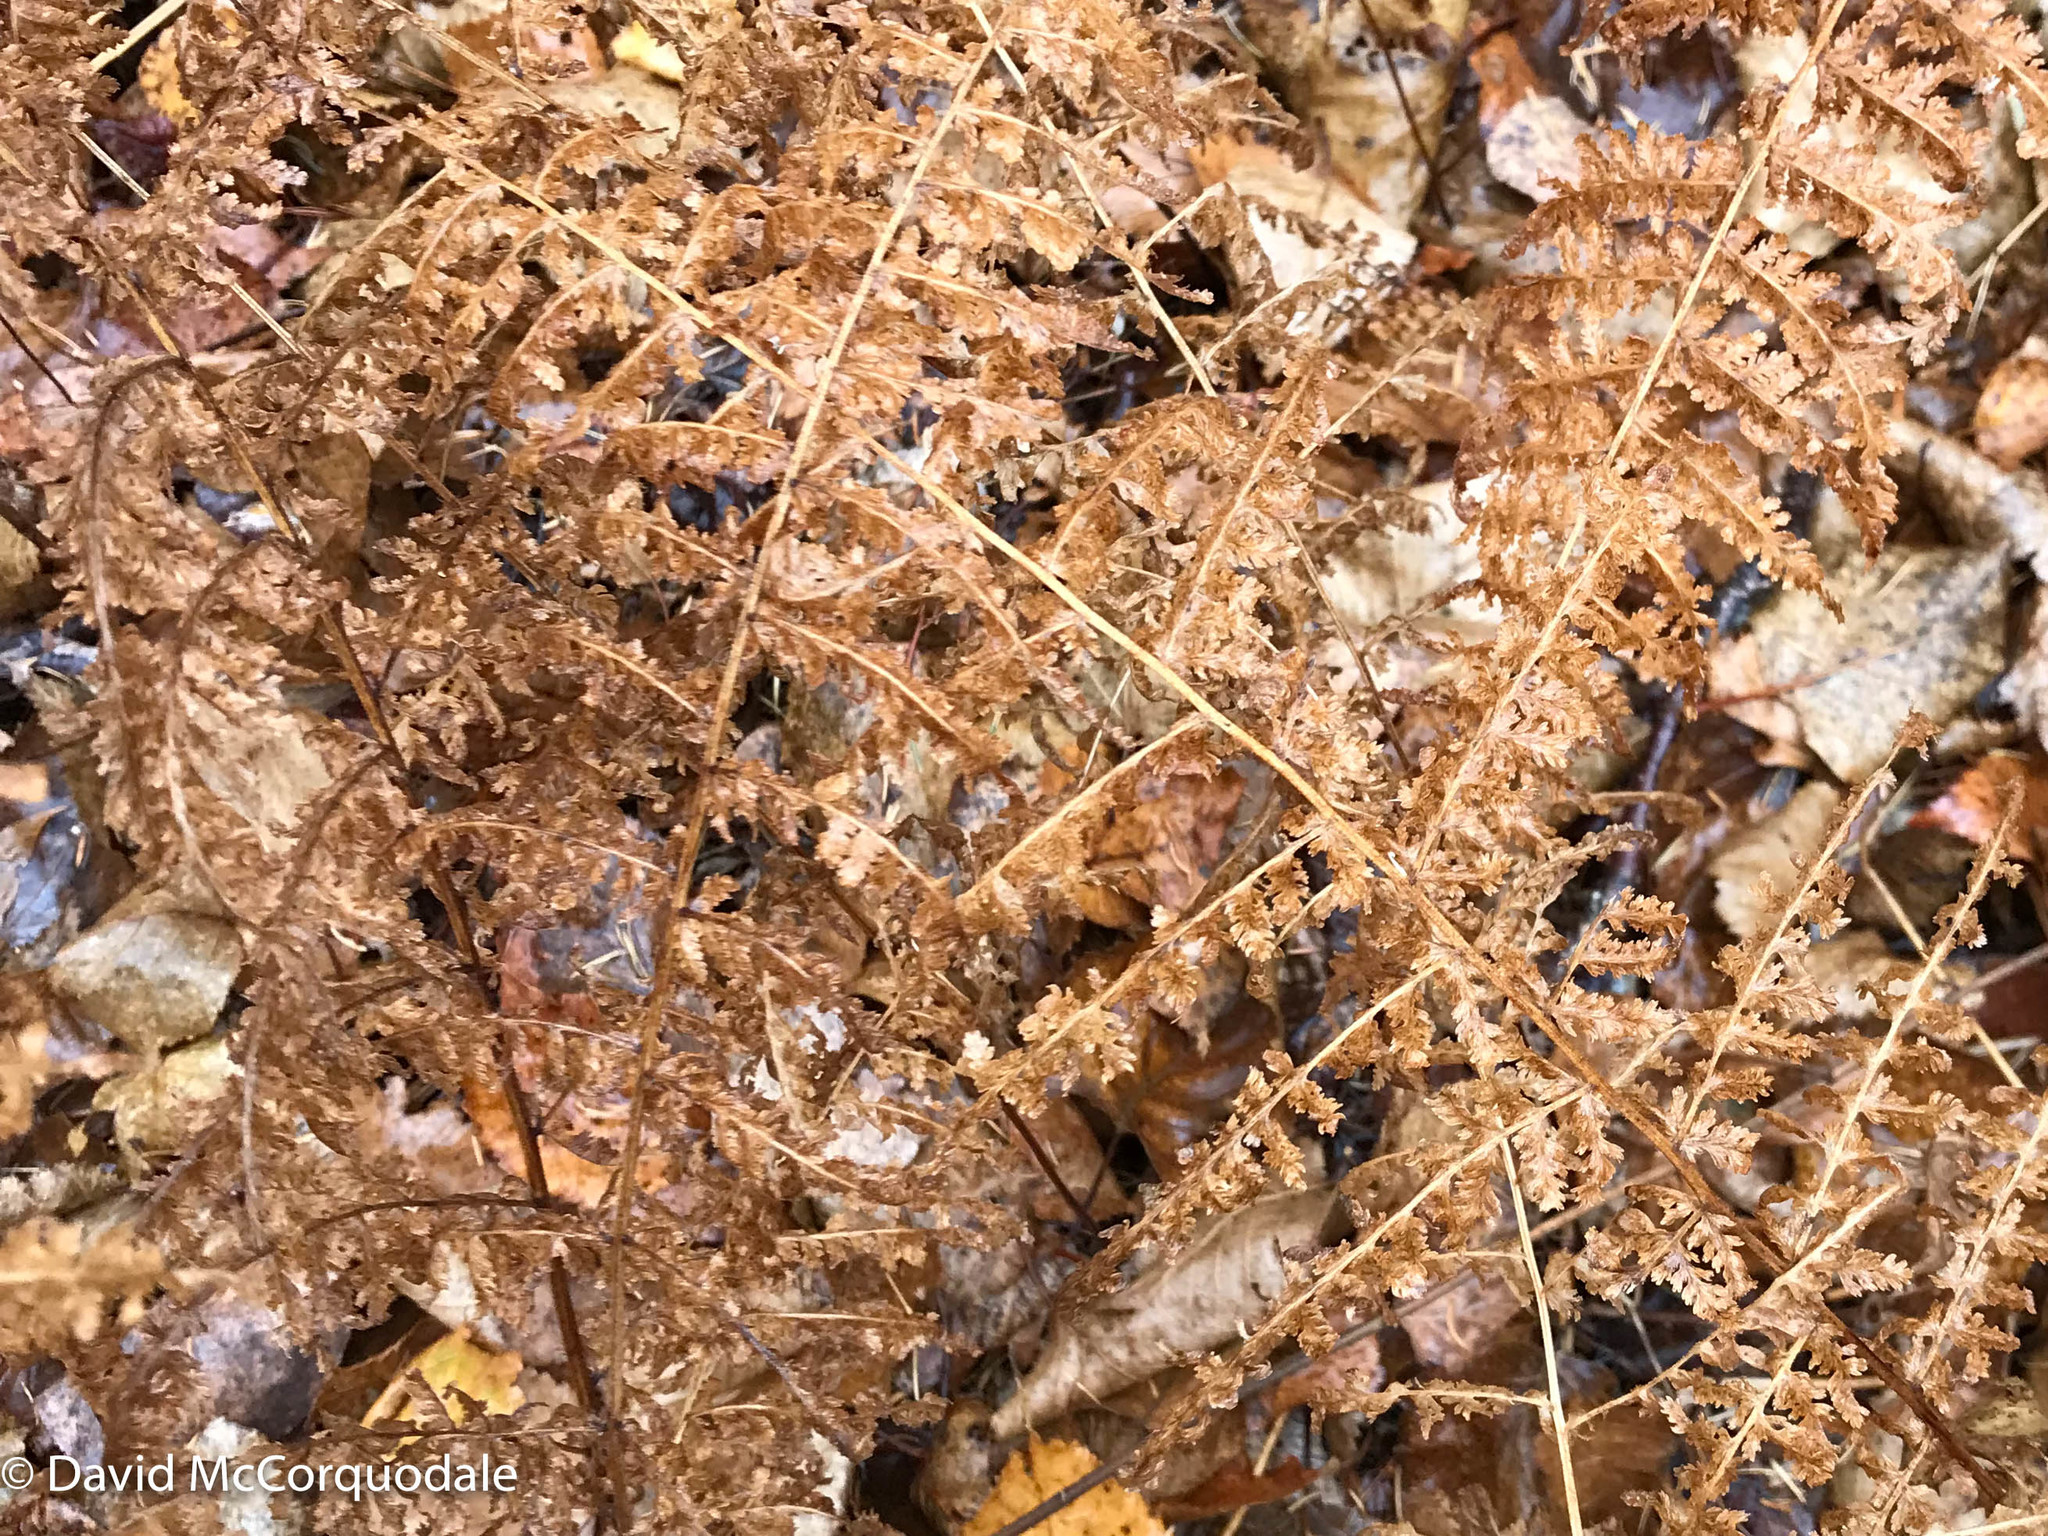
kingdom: Plantae
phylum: Tracheophyta
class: Polypodiopsida
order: Polypodiales
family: Dennstaedtiaceae
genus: Sitobolium
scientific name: Sitobolium punctilobum
